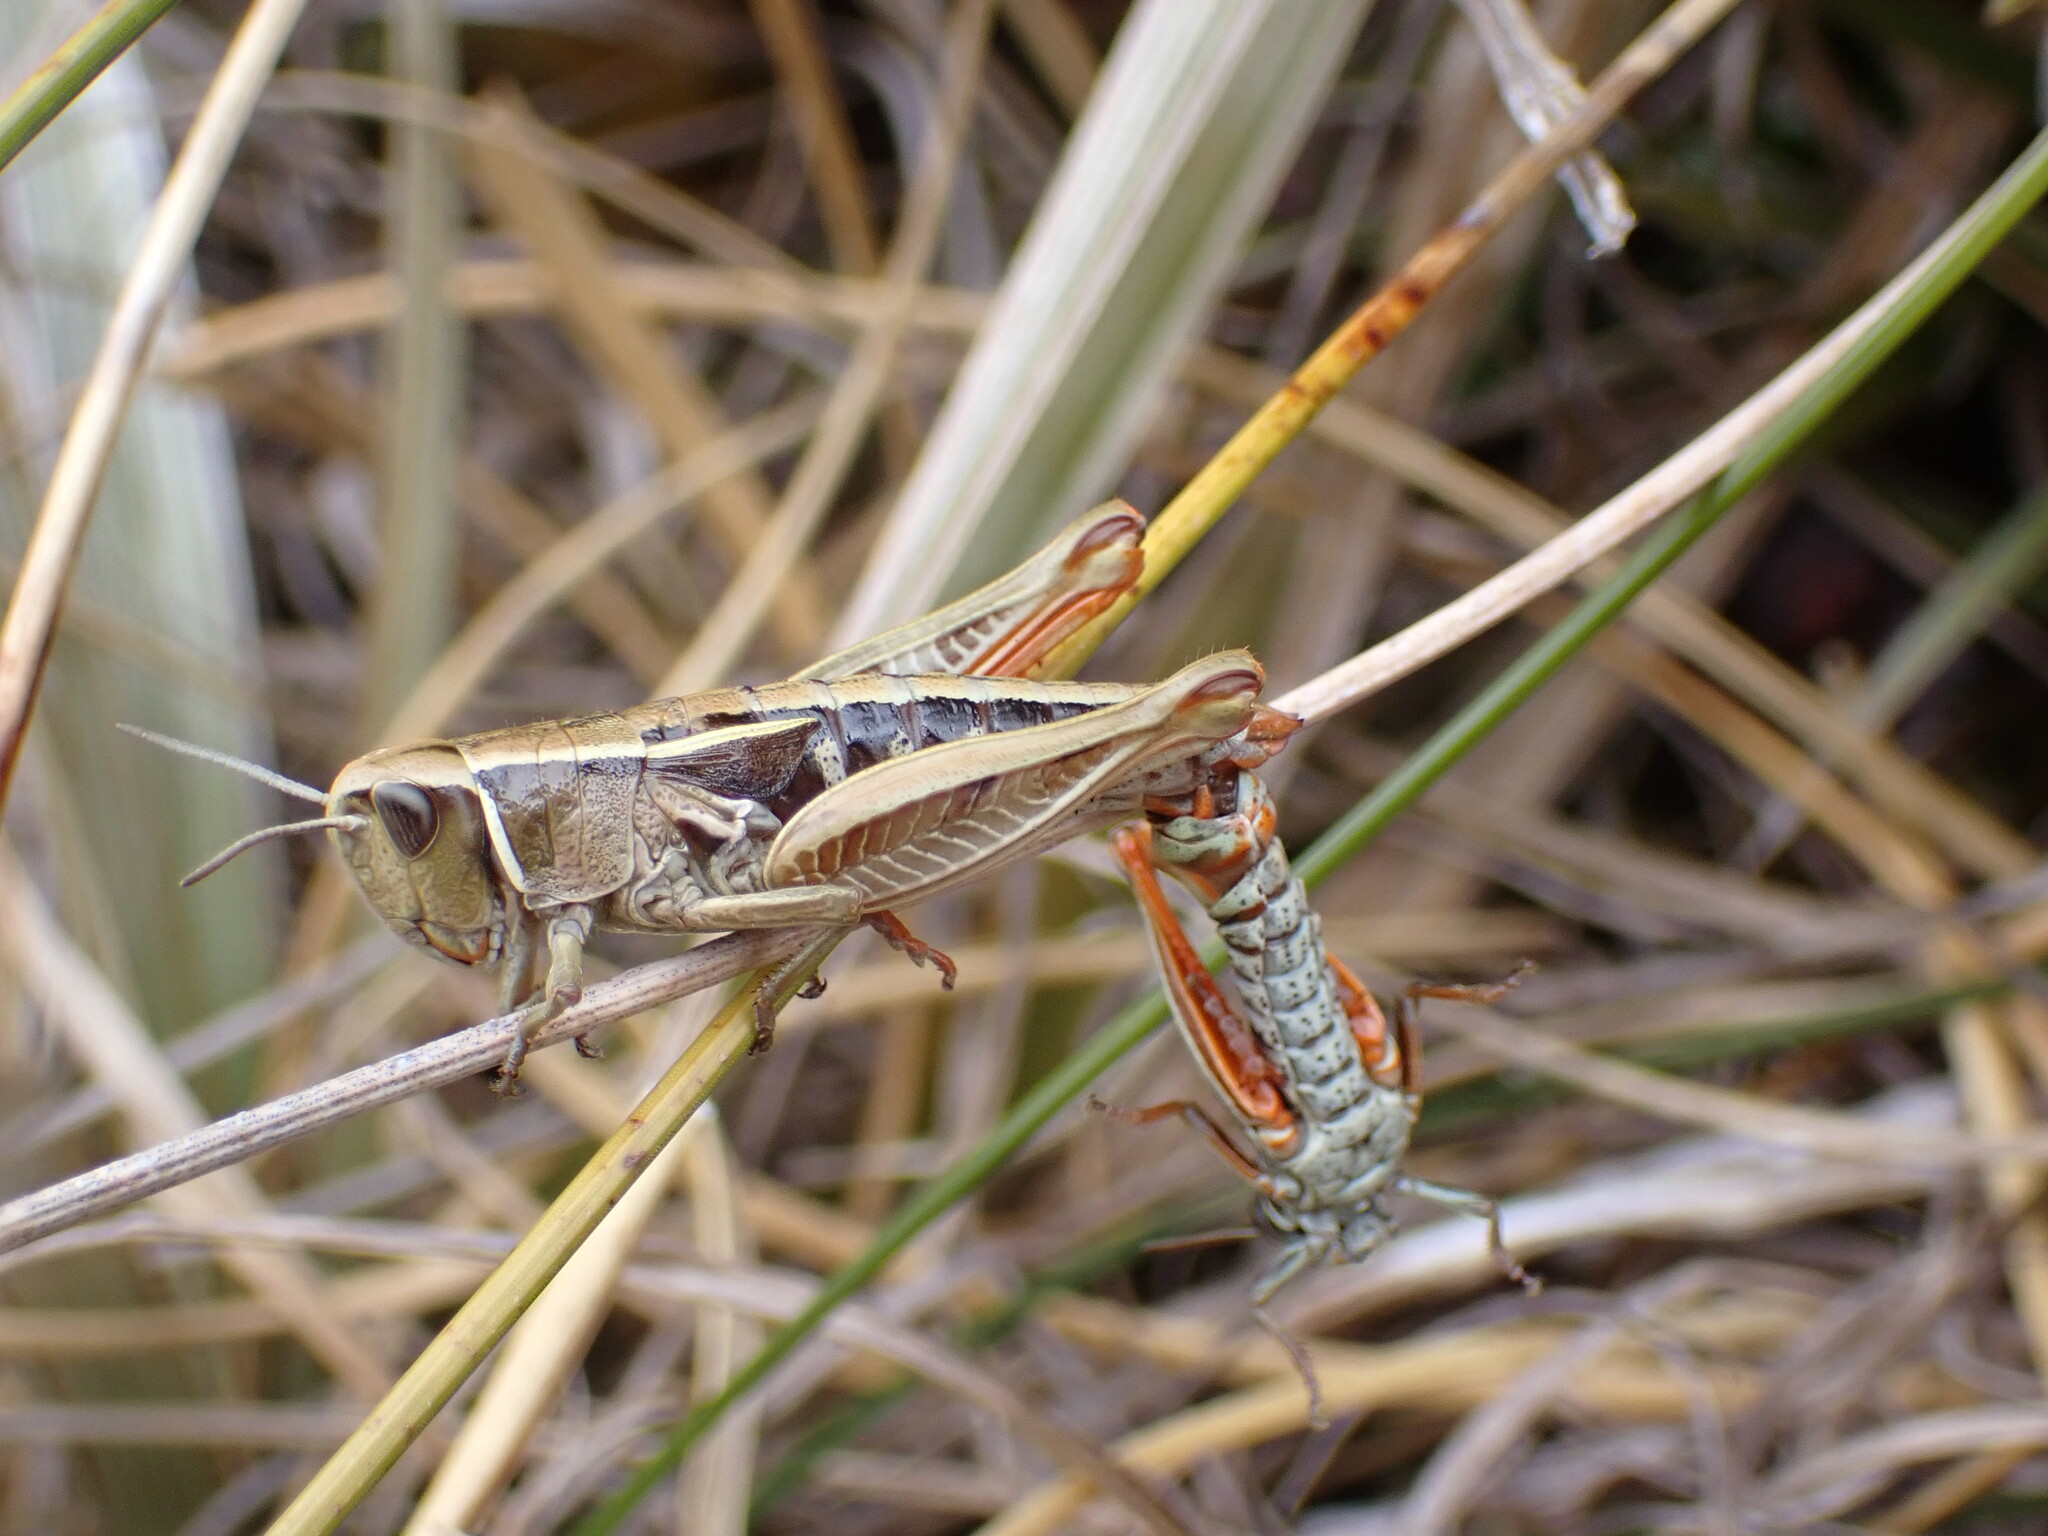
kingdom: Animalia
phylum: Arthropoda
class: Insecta
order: Orthoptera
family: Acrididae
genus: Sigaus
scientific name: Sigaus
